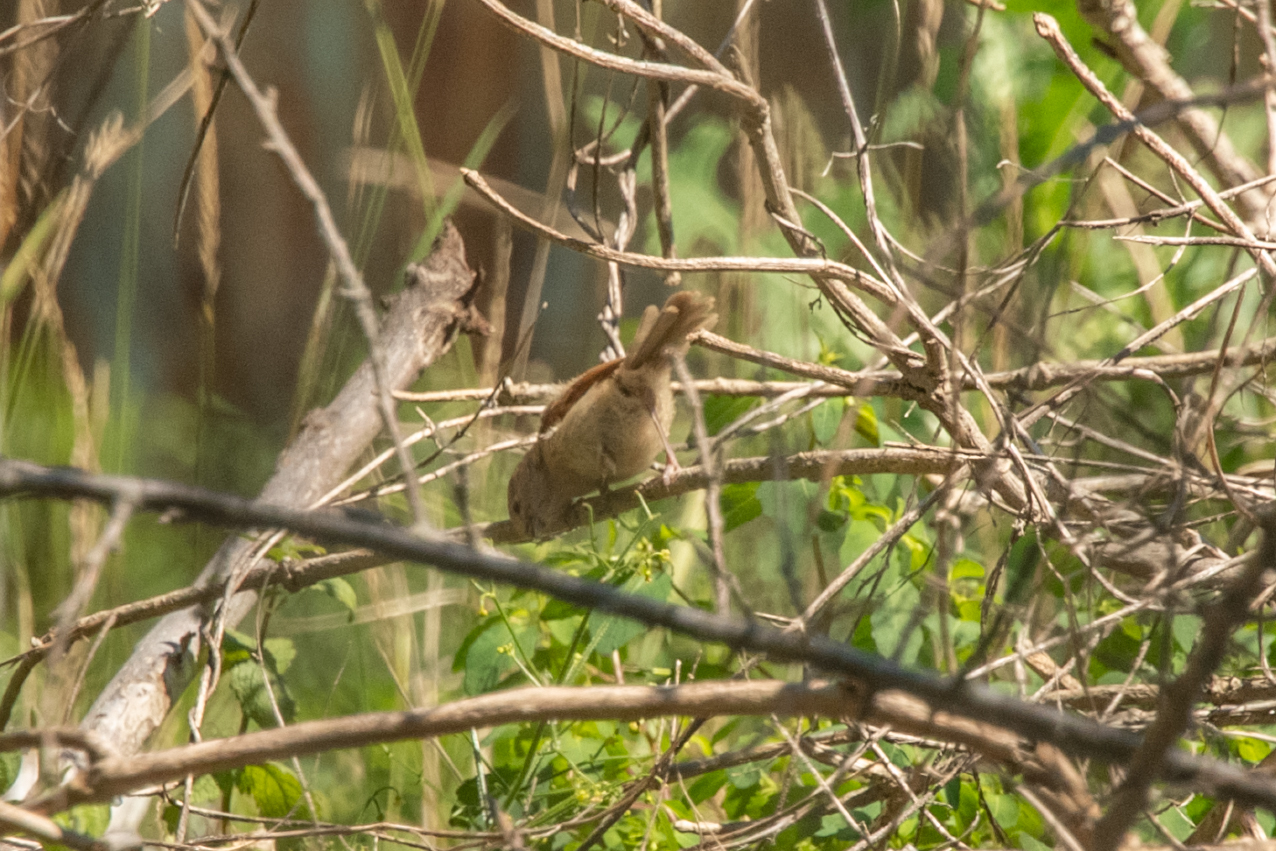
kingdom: Animalia
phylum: Chordata
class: Aves
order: Passeriformes
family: Sylviidae
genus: Sinosuthora
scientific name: Sinosuthora webbiana
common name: Vinous-throated parrotbill
